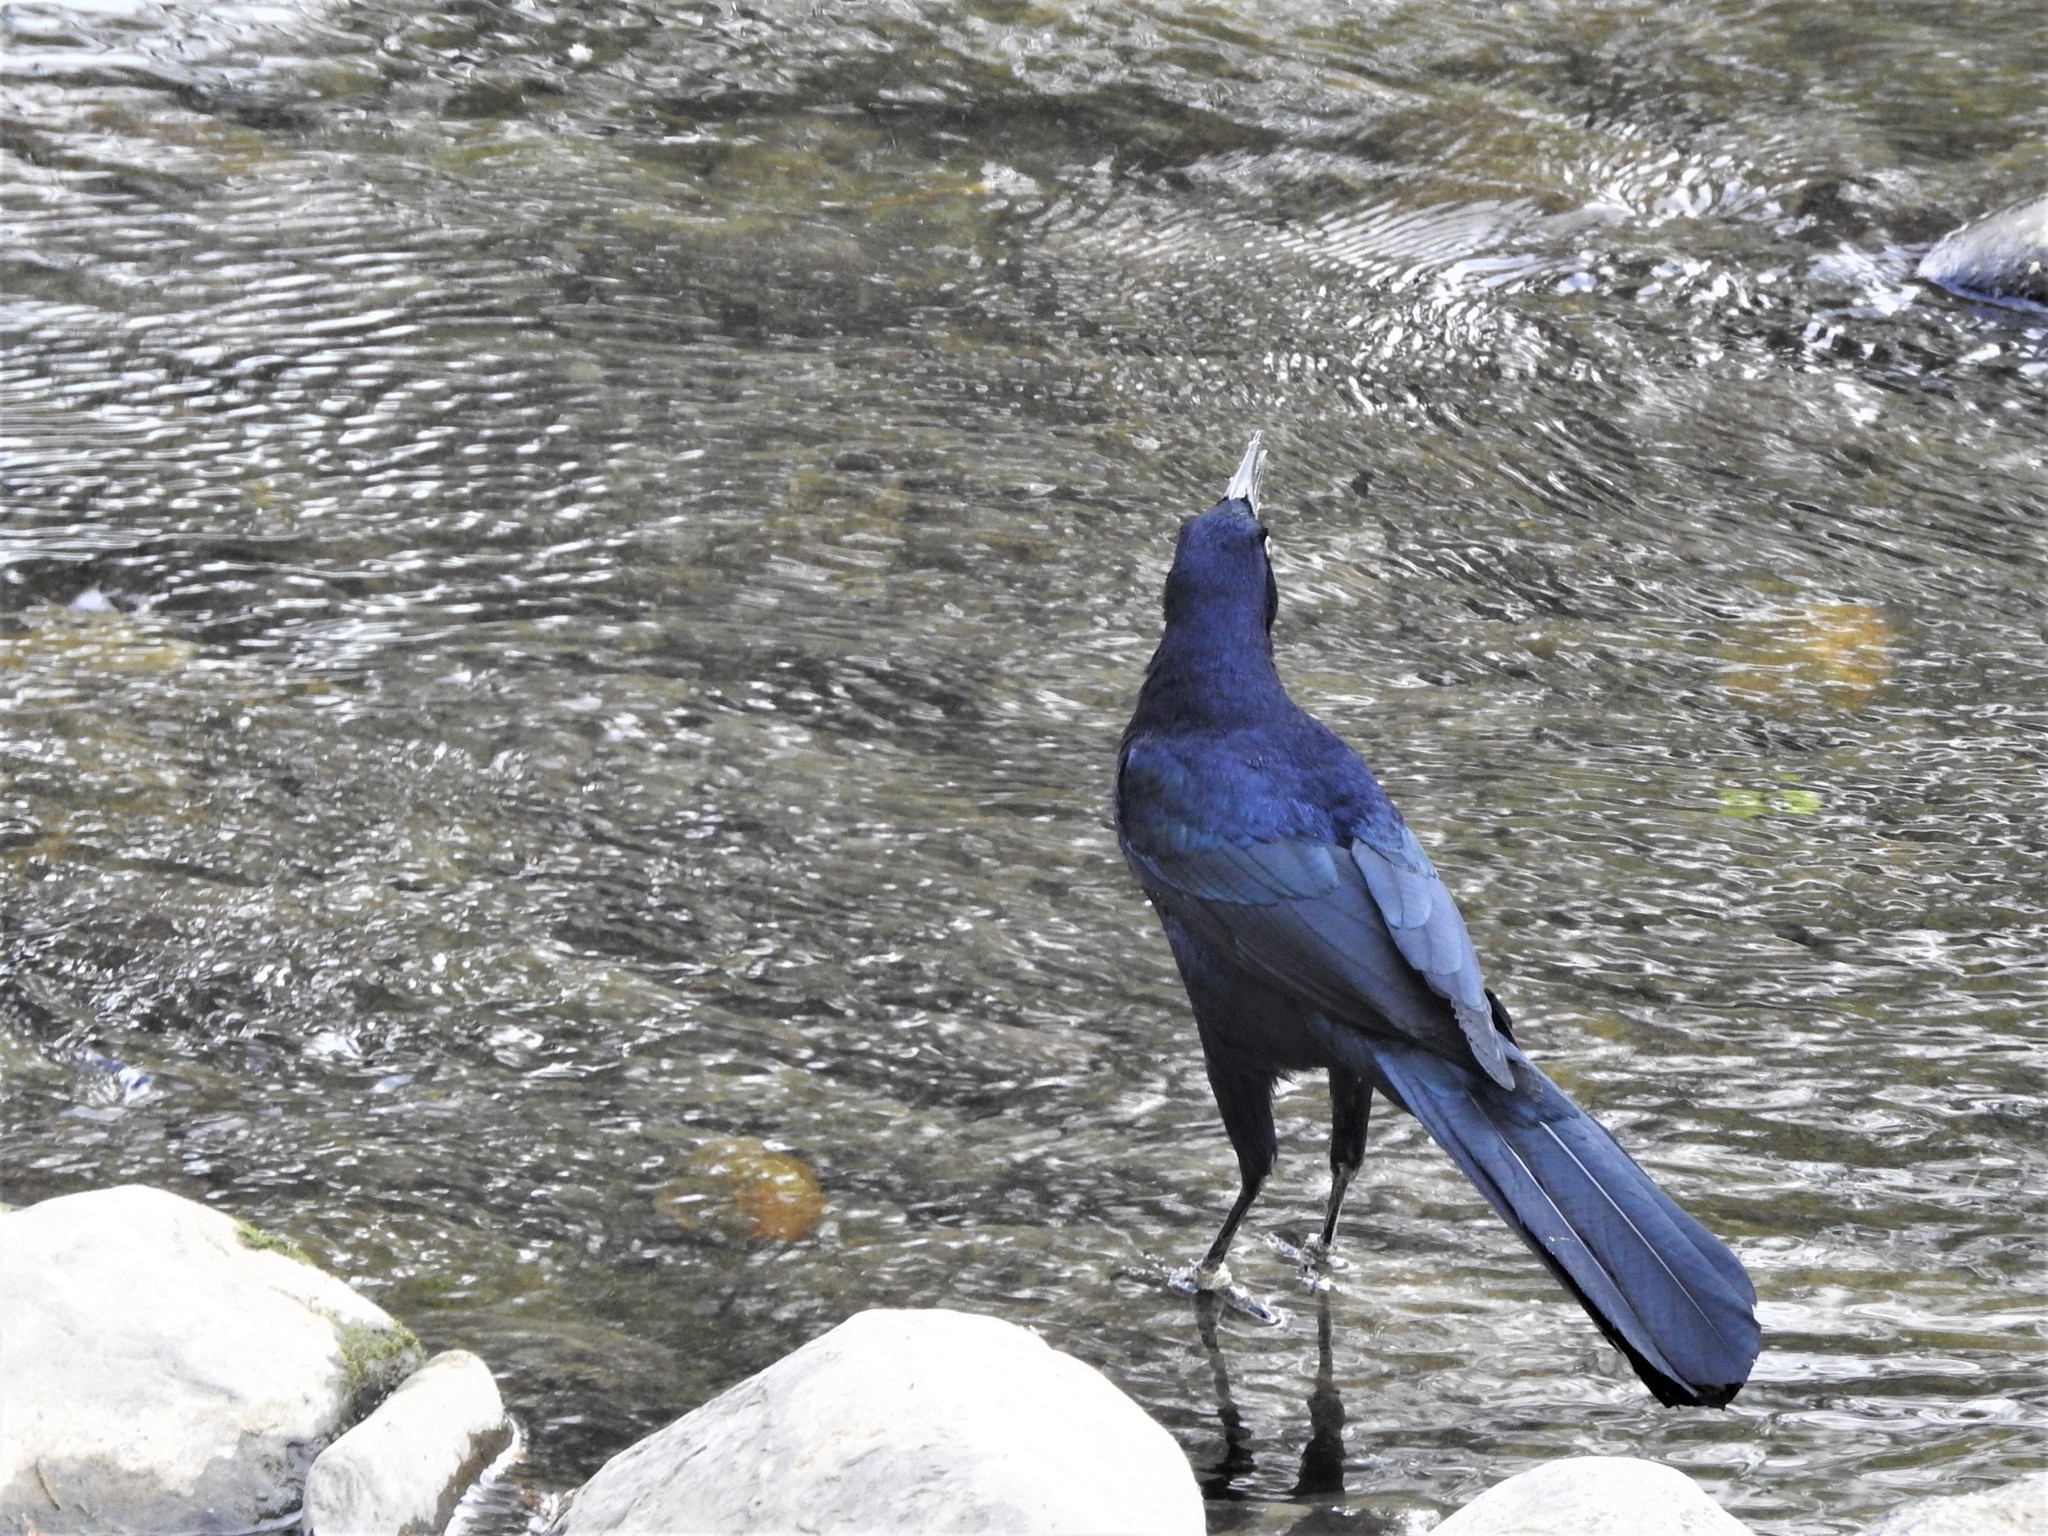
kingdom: Animalia
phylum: Chordata
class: Aves
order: Passeriformes
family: Icteridae
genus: Quiscalus
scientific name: Quiscalus mexicanus
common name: Great-tailed grackle
